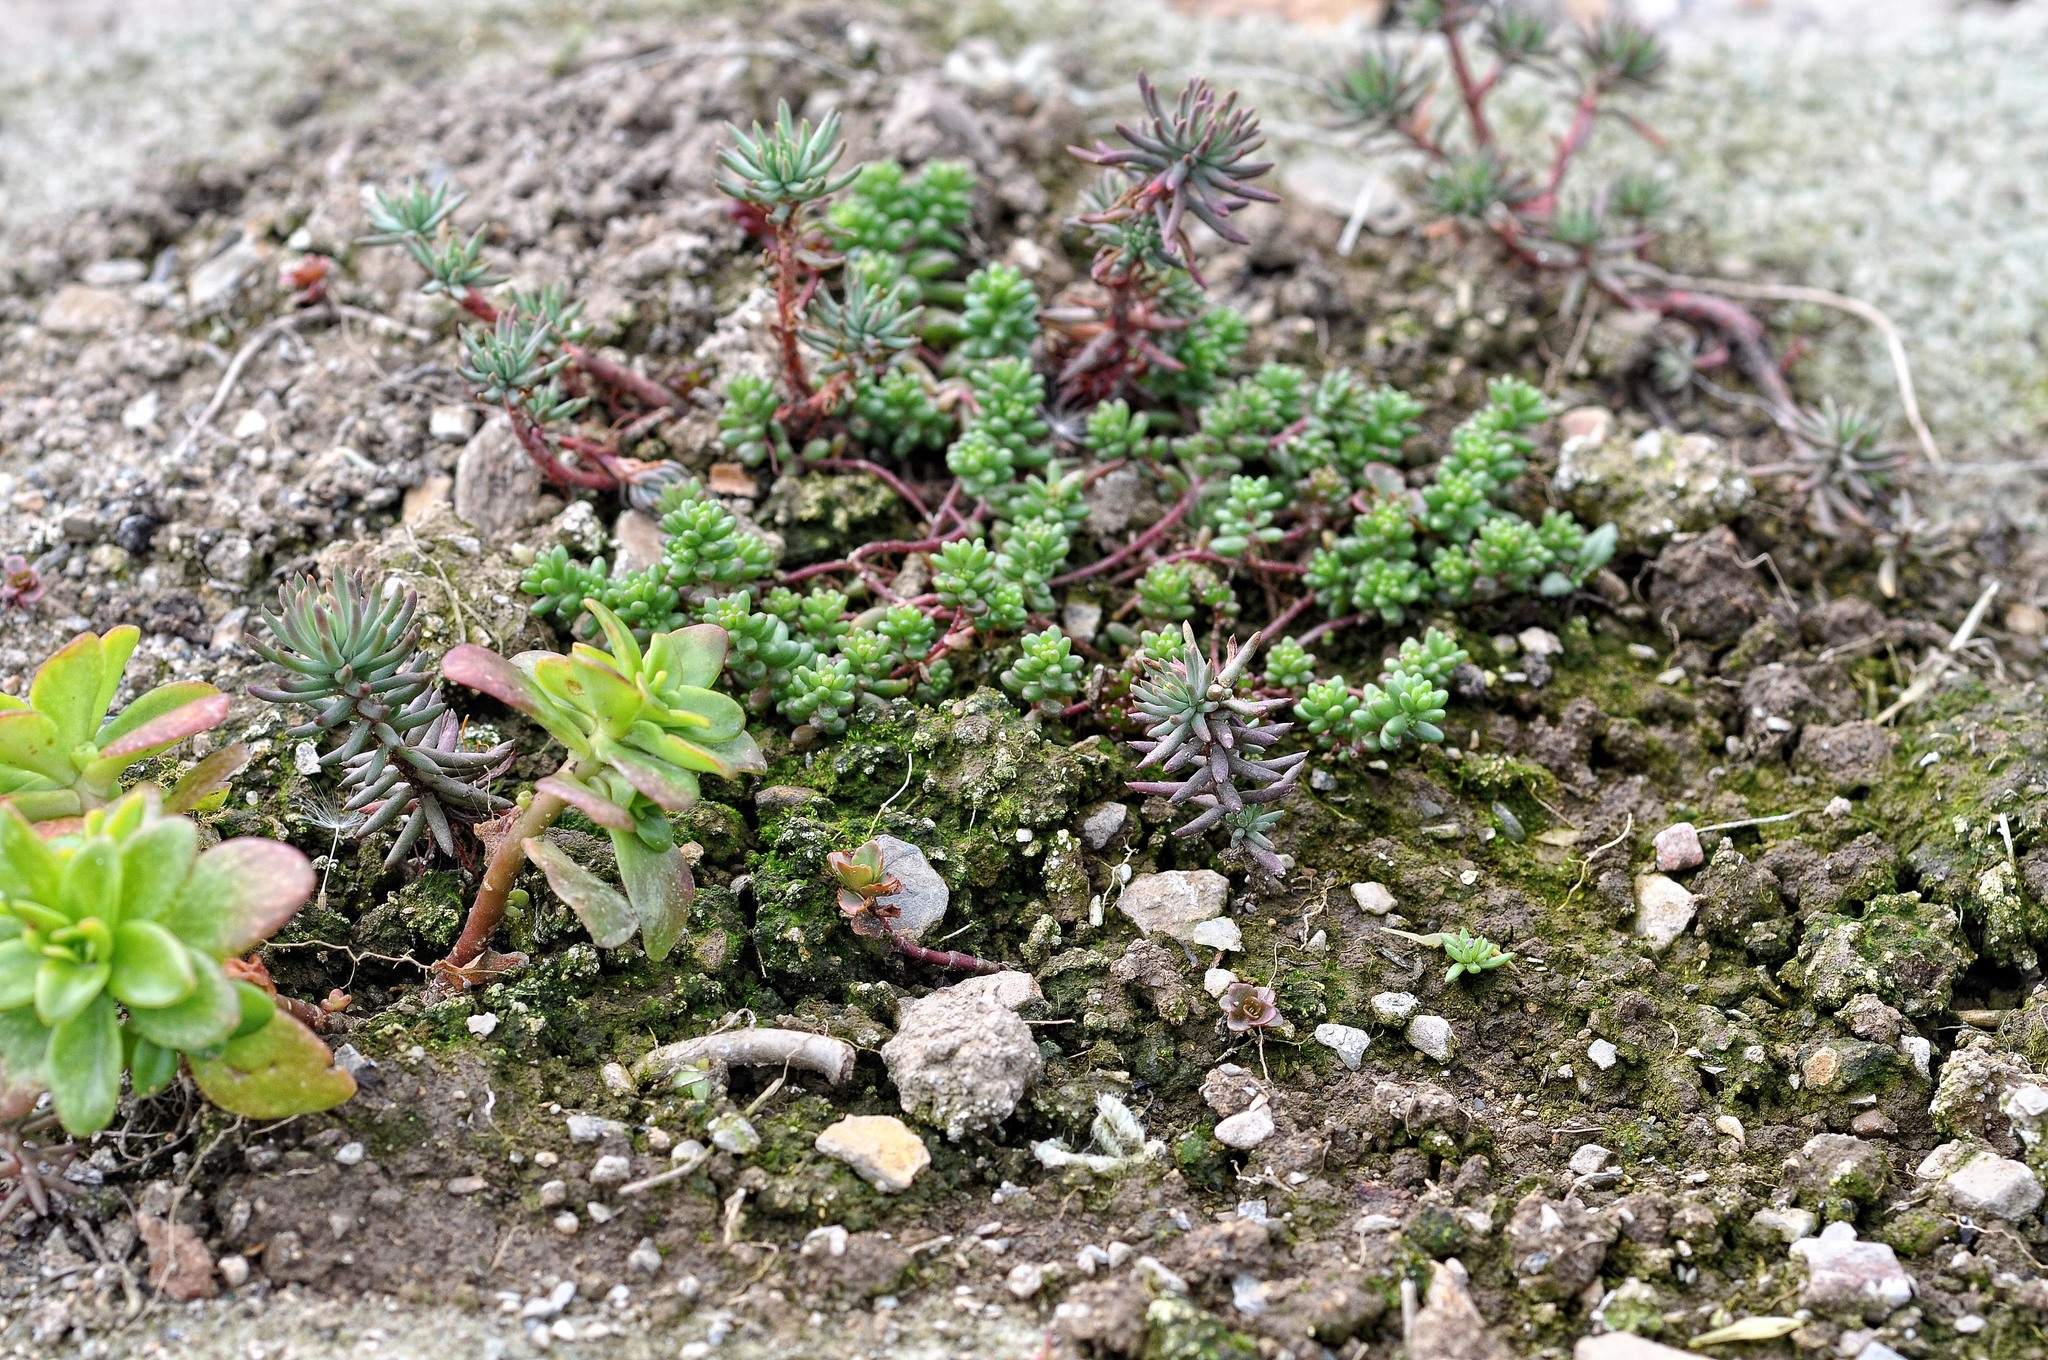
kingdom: Plantae
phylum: Tracheophyta
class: Magnoliopsida
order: Saxifragales
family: Crassulaceae
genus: Sedum
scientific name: Sedum album
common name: White stonecrop
